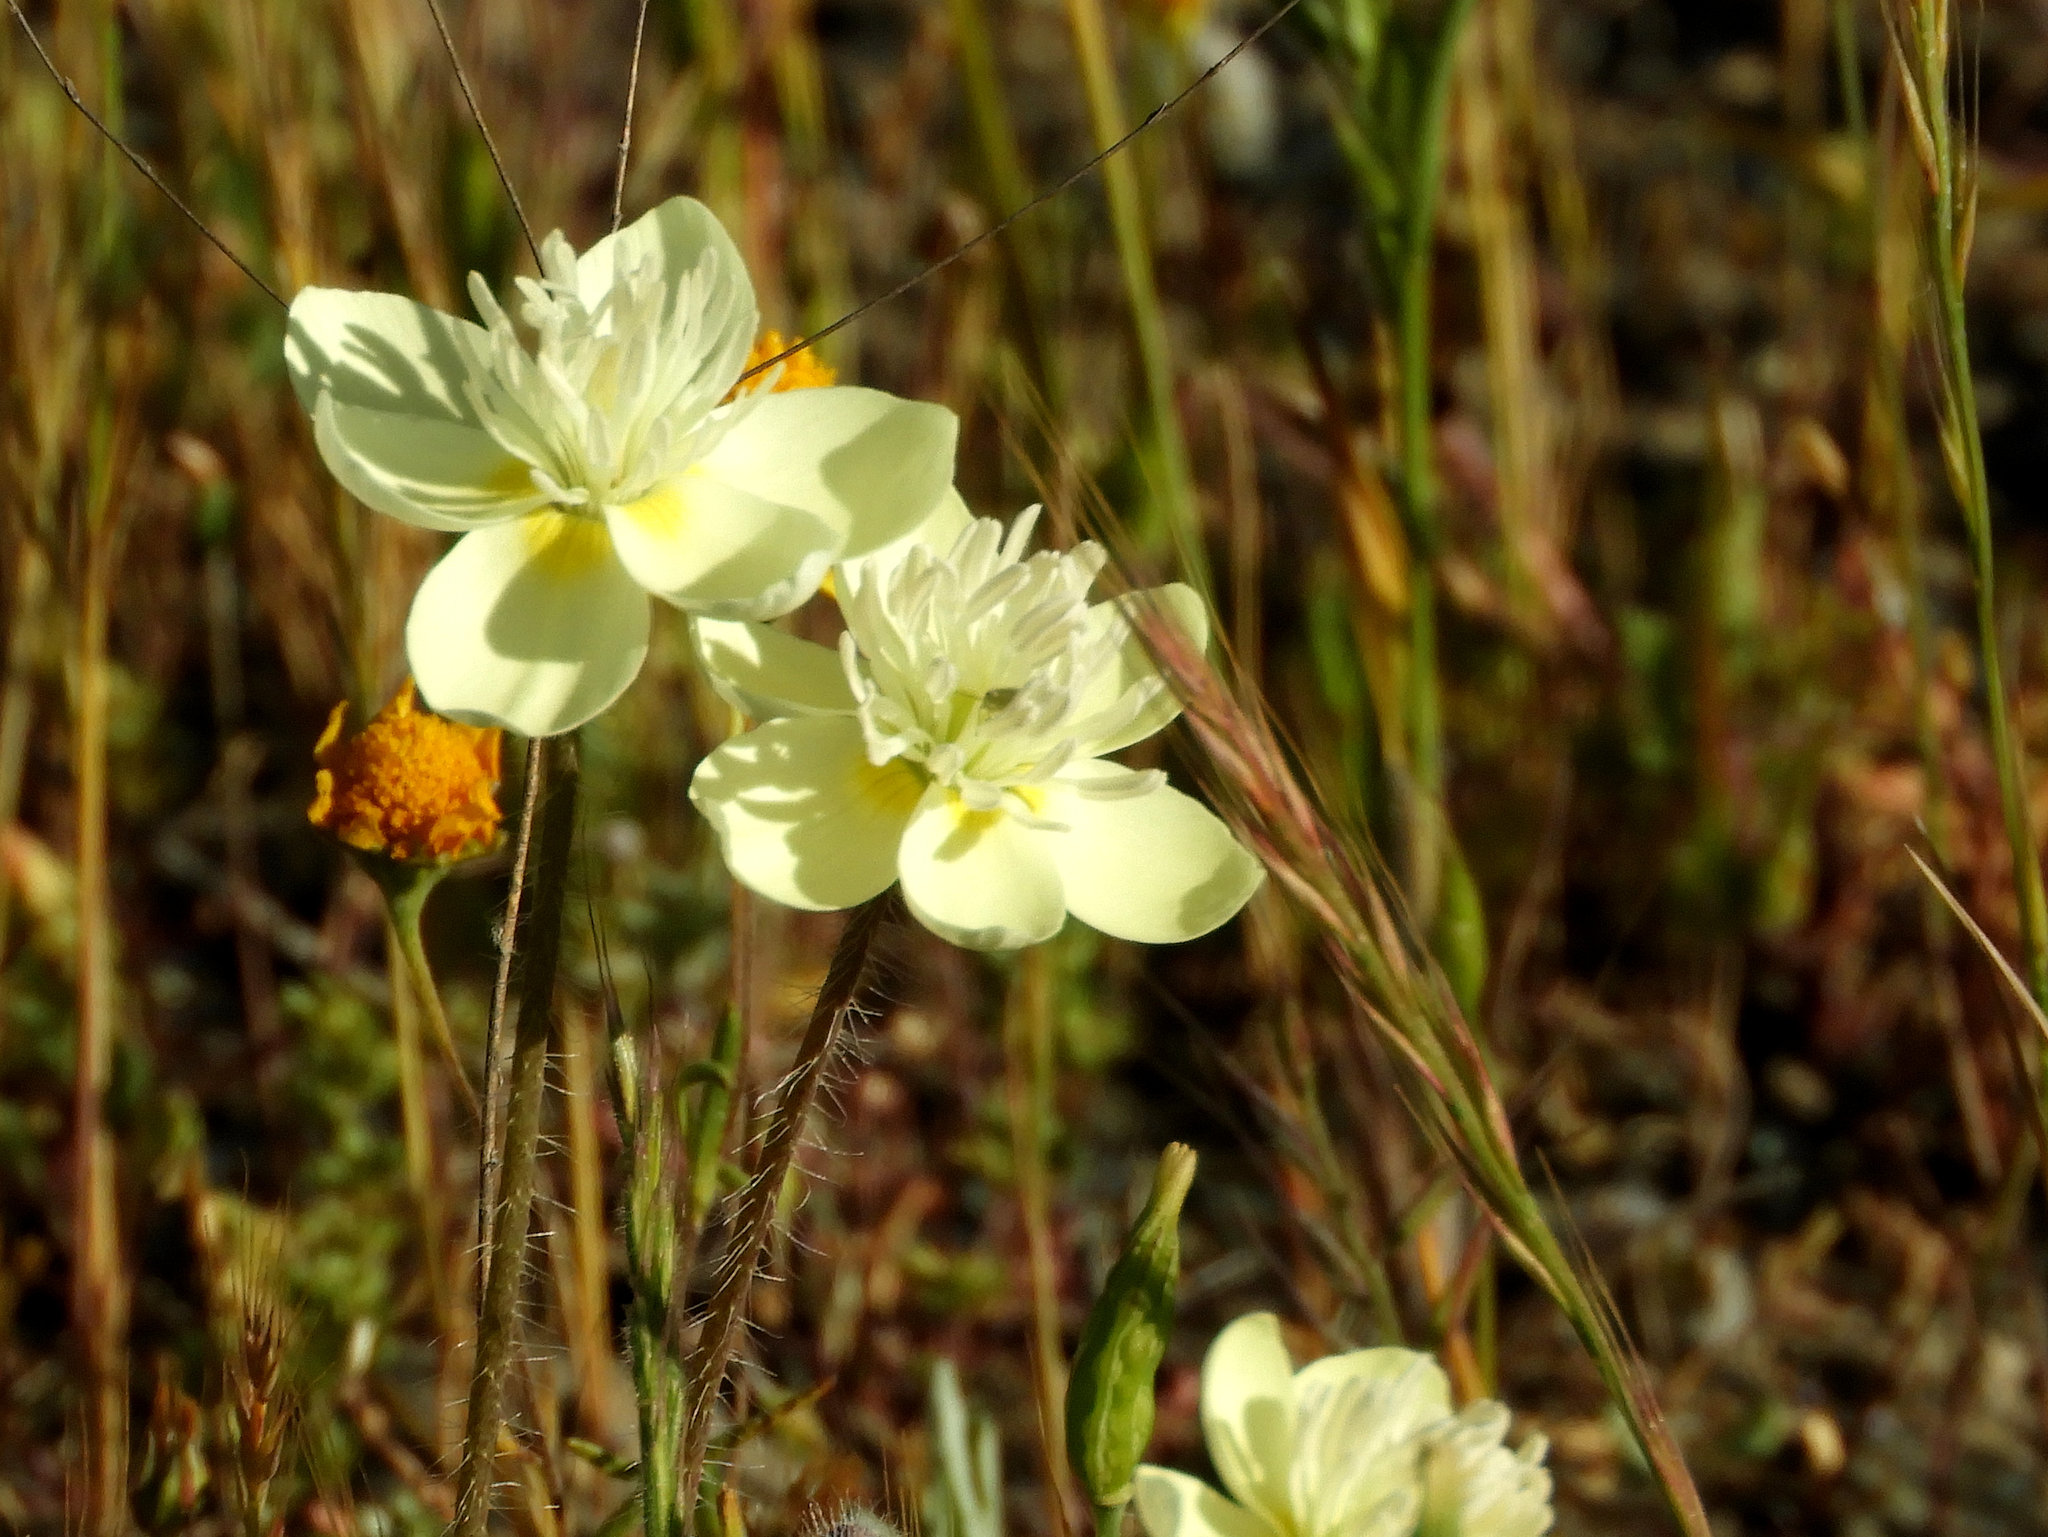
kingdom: Plantae
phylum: Tracheophyta
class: Magnoliopsida
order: Ranunculales
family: Papaveraceae
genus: Platystemon
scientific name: Platystemon californicus
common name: Cream-cups
